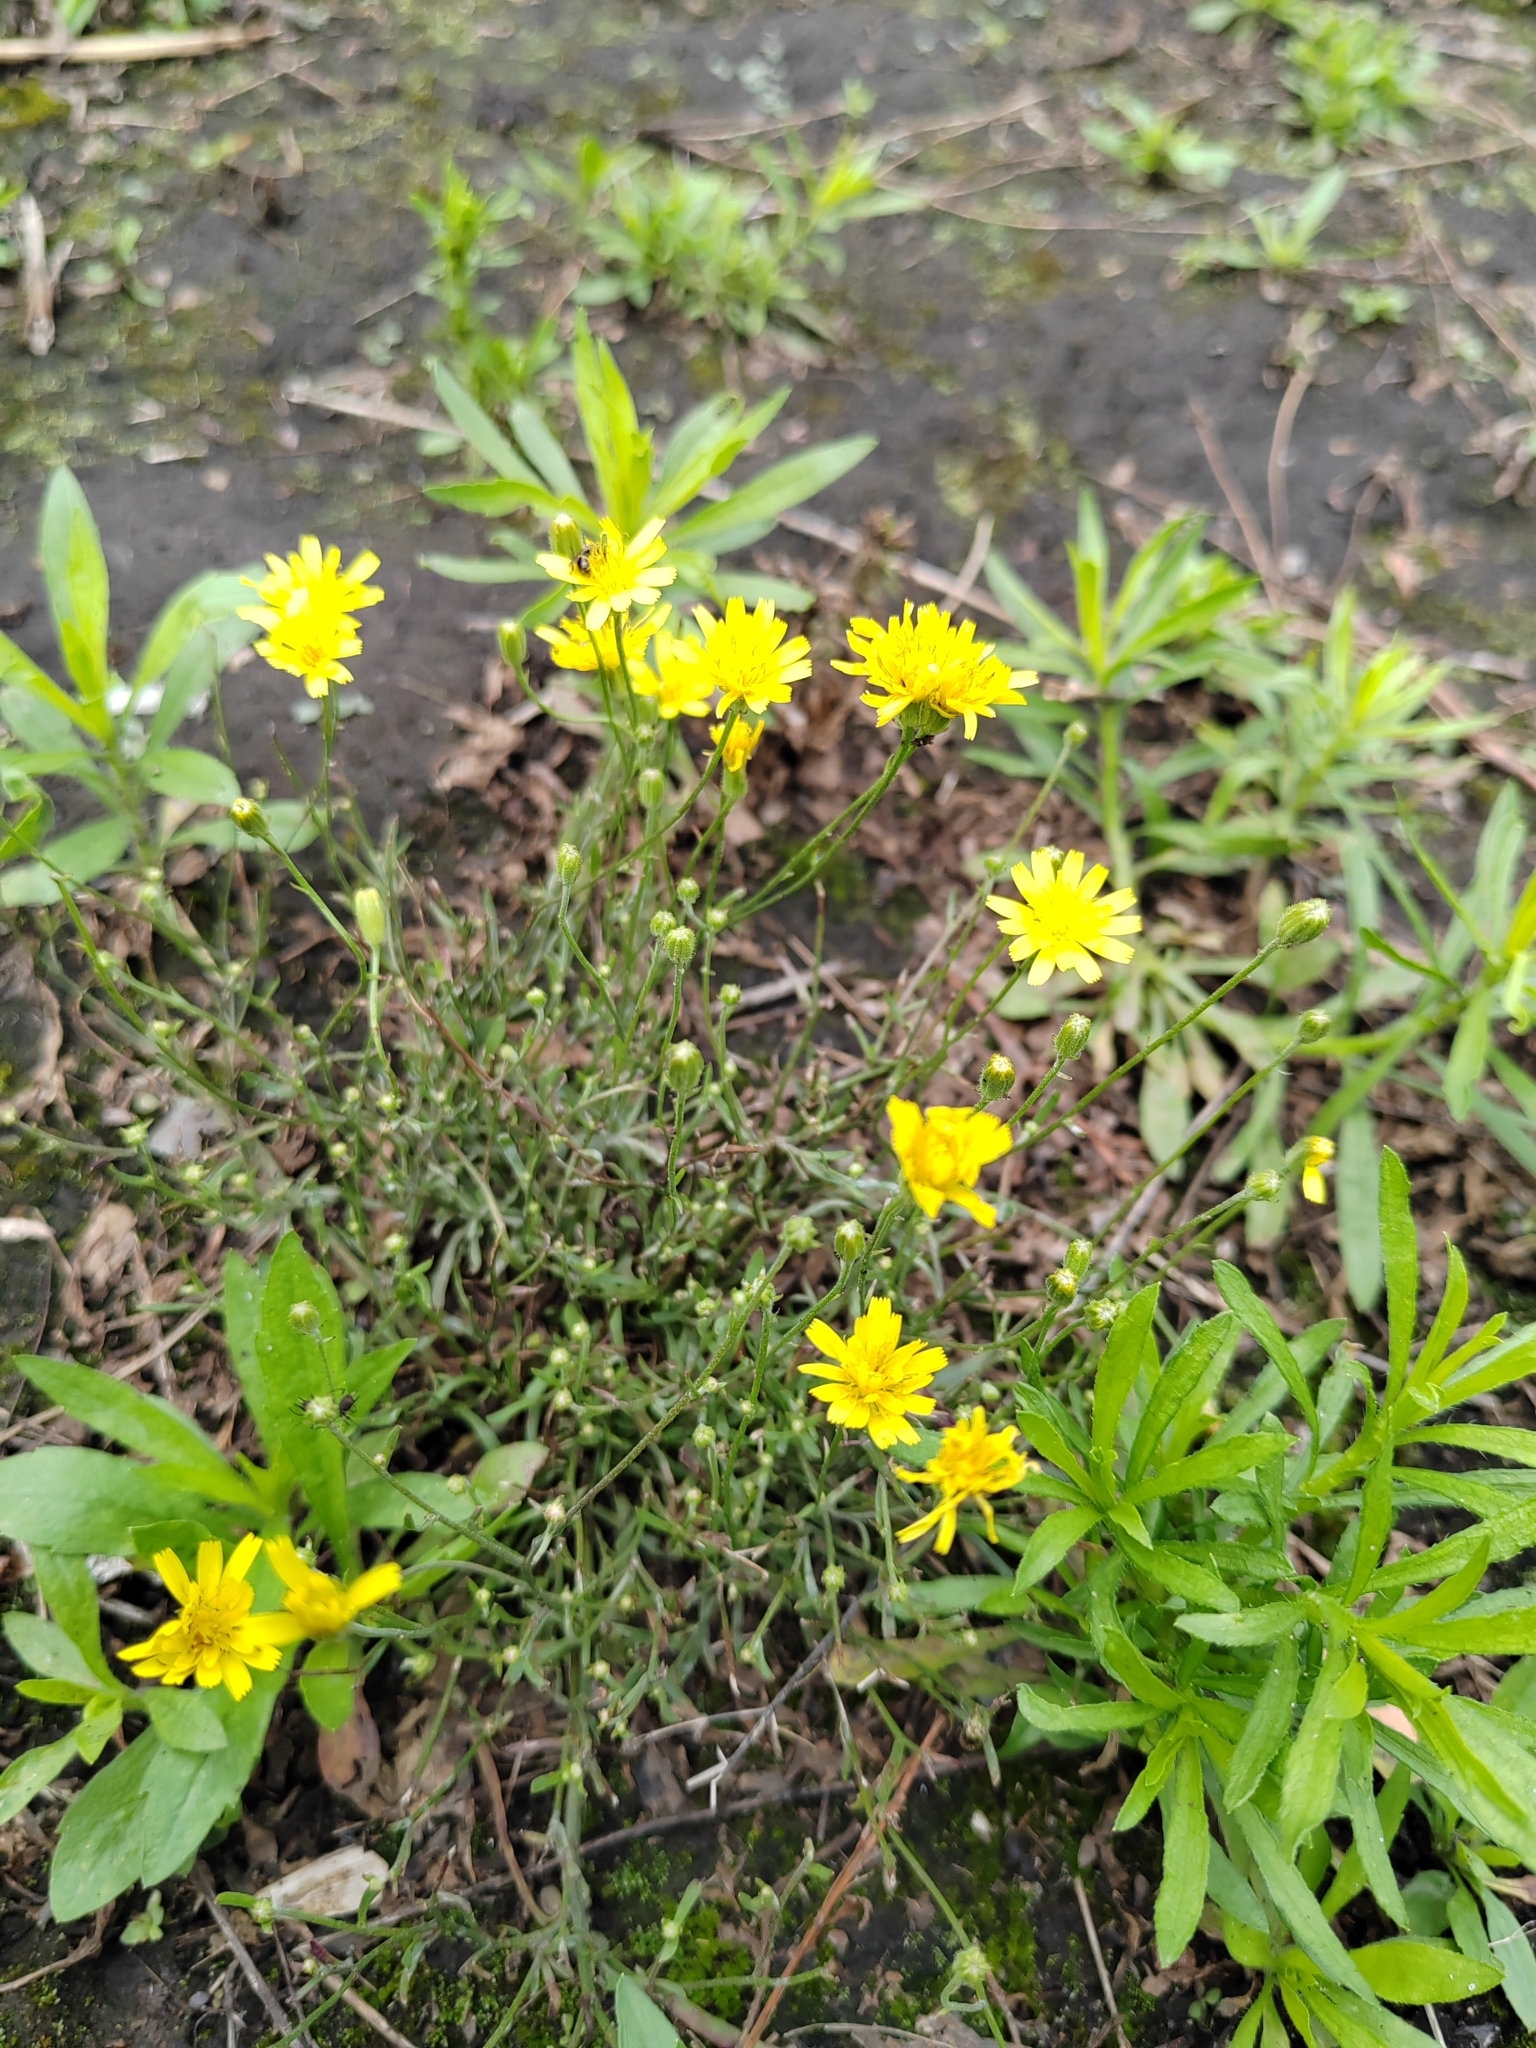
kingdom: Plantae
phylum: Tracheophyta
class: Magnoliopsida
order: Asterales
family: Asteraceae
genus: Crepis
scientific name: Crepis tectorum
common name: Narrow-leaved hawk's-beard
